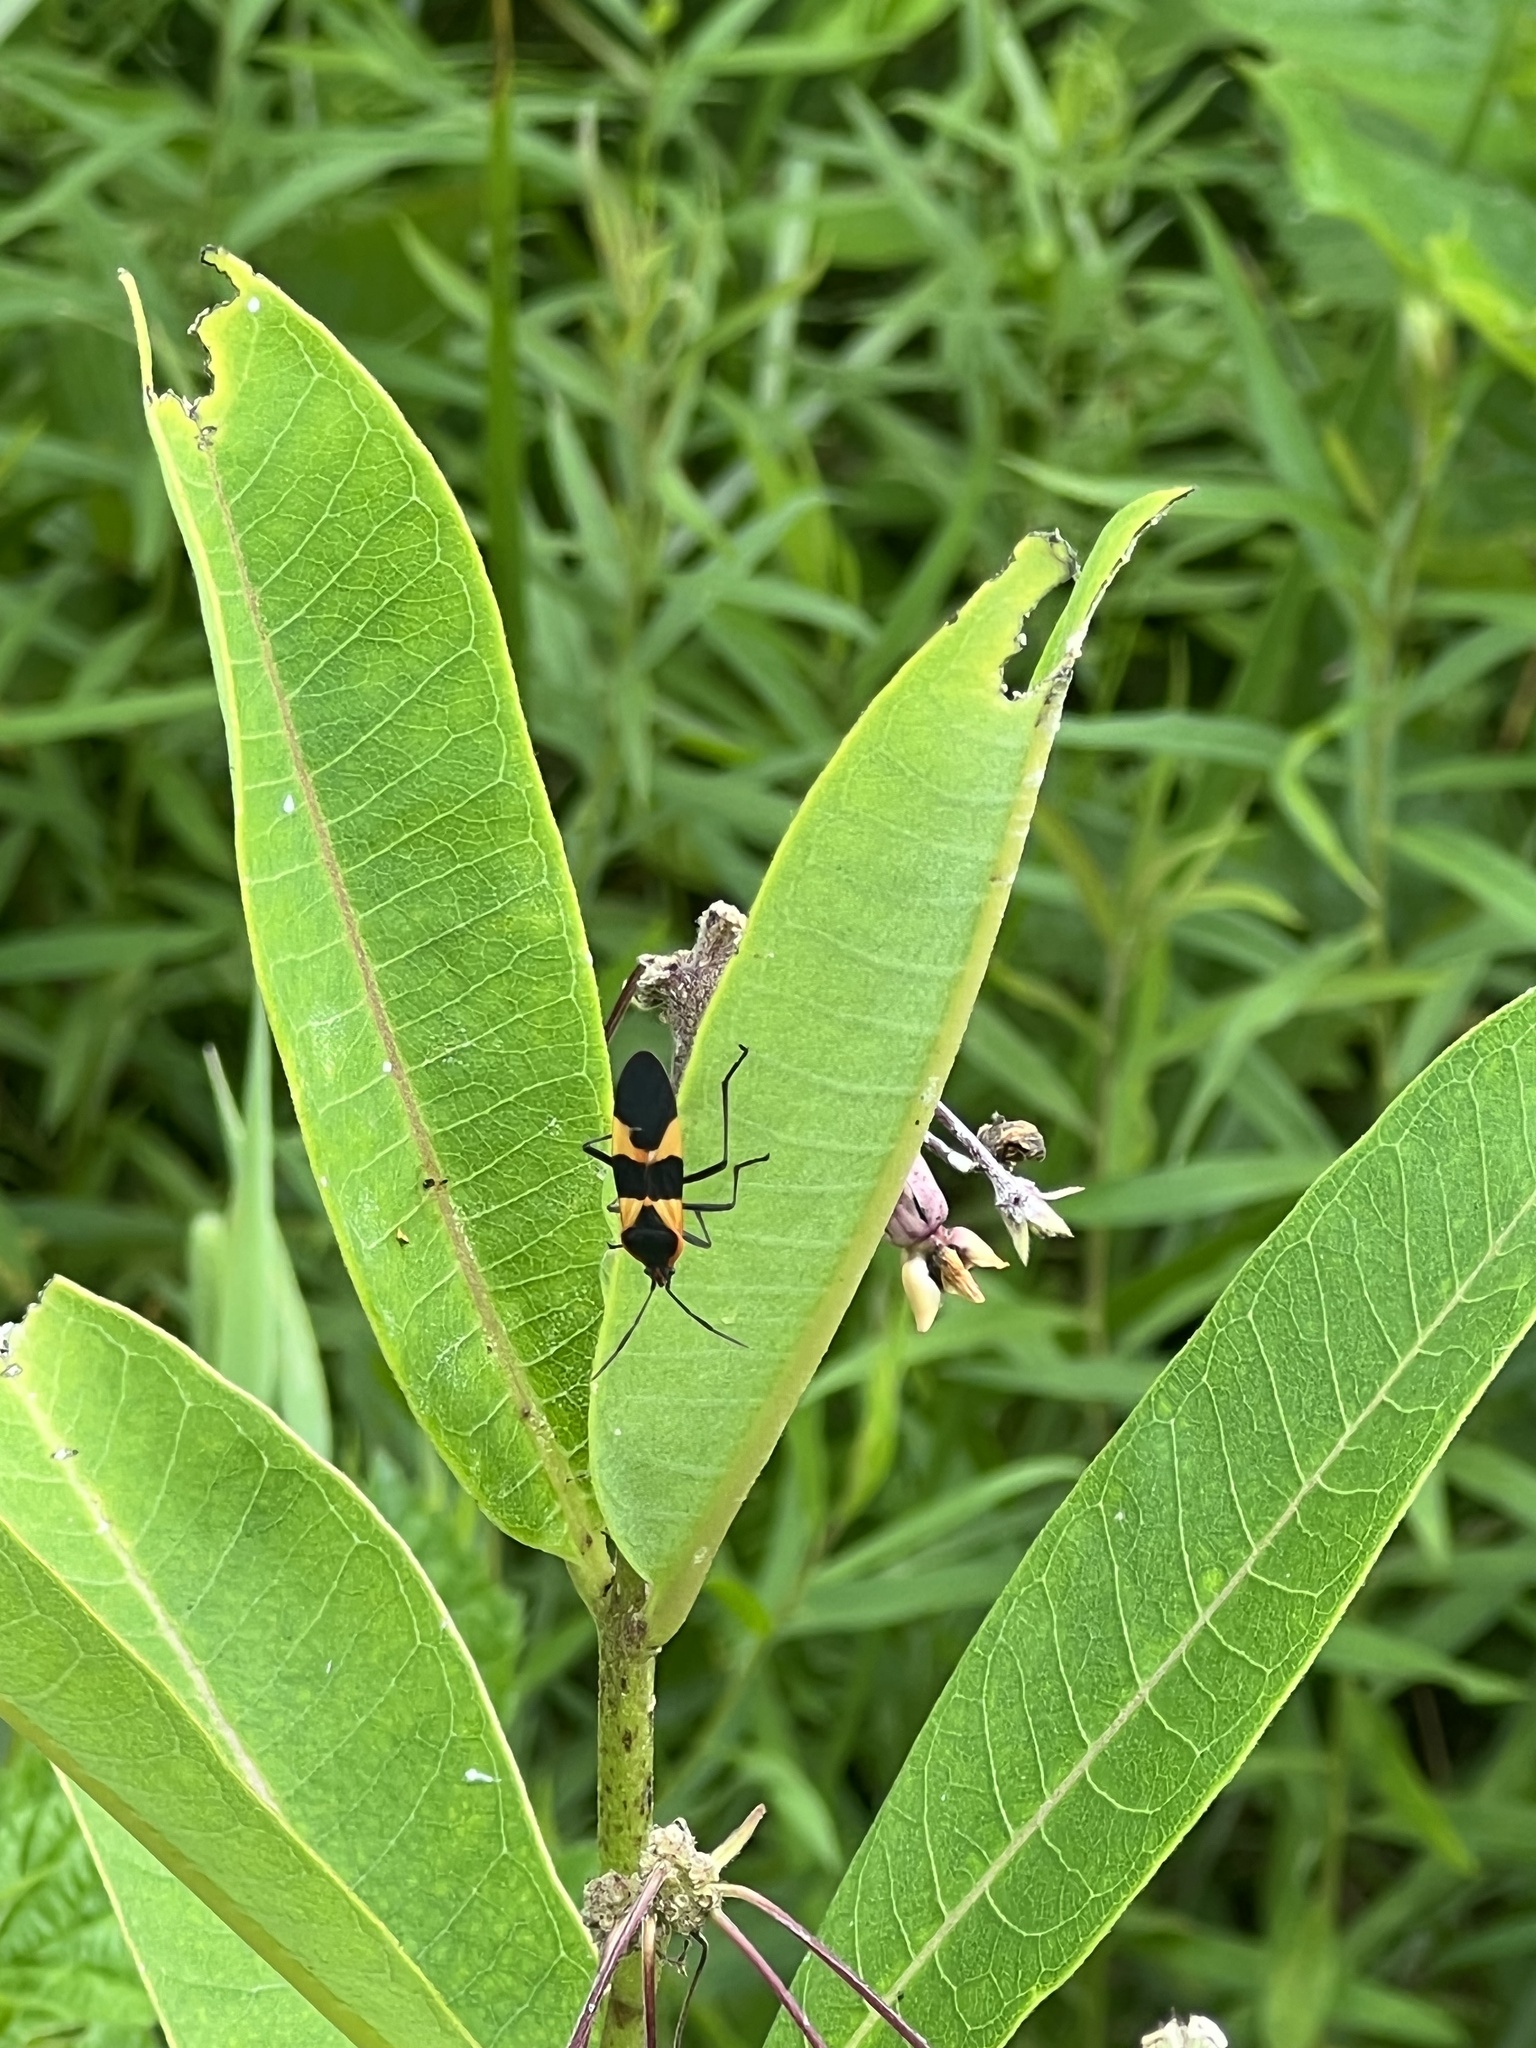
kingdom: Animalia
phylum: Arthropoda
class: Insecta
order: Hemiptera
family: Lygaeidae
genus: Oncopeltus
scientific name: Oncopeltus fasciatus
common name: Large milkweed bug
